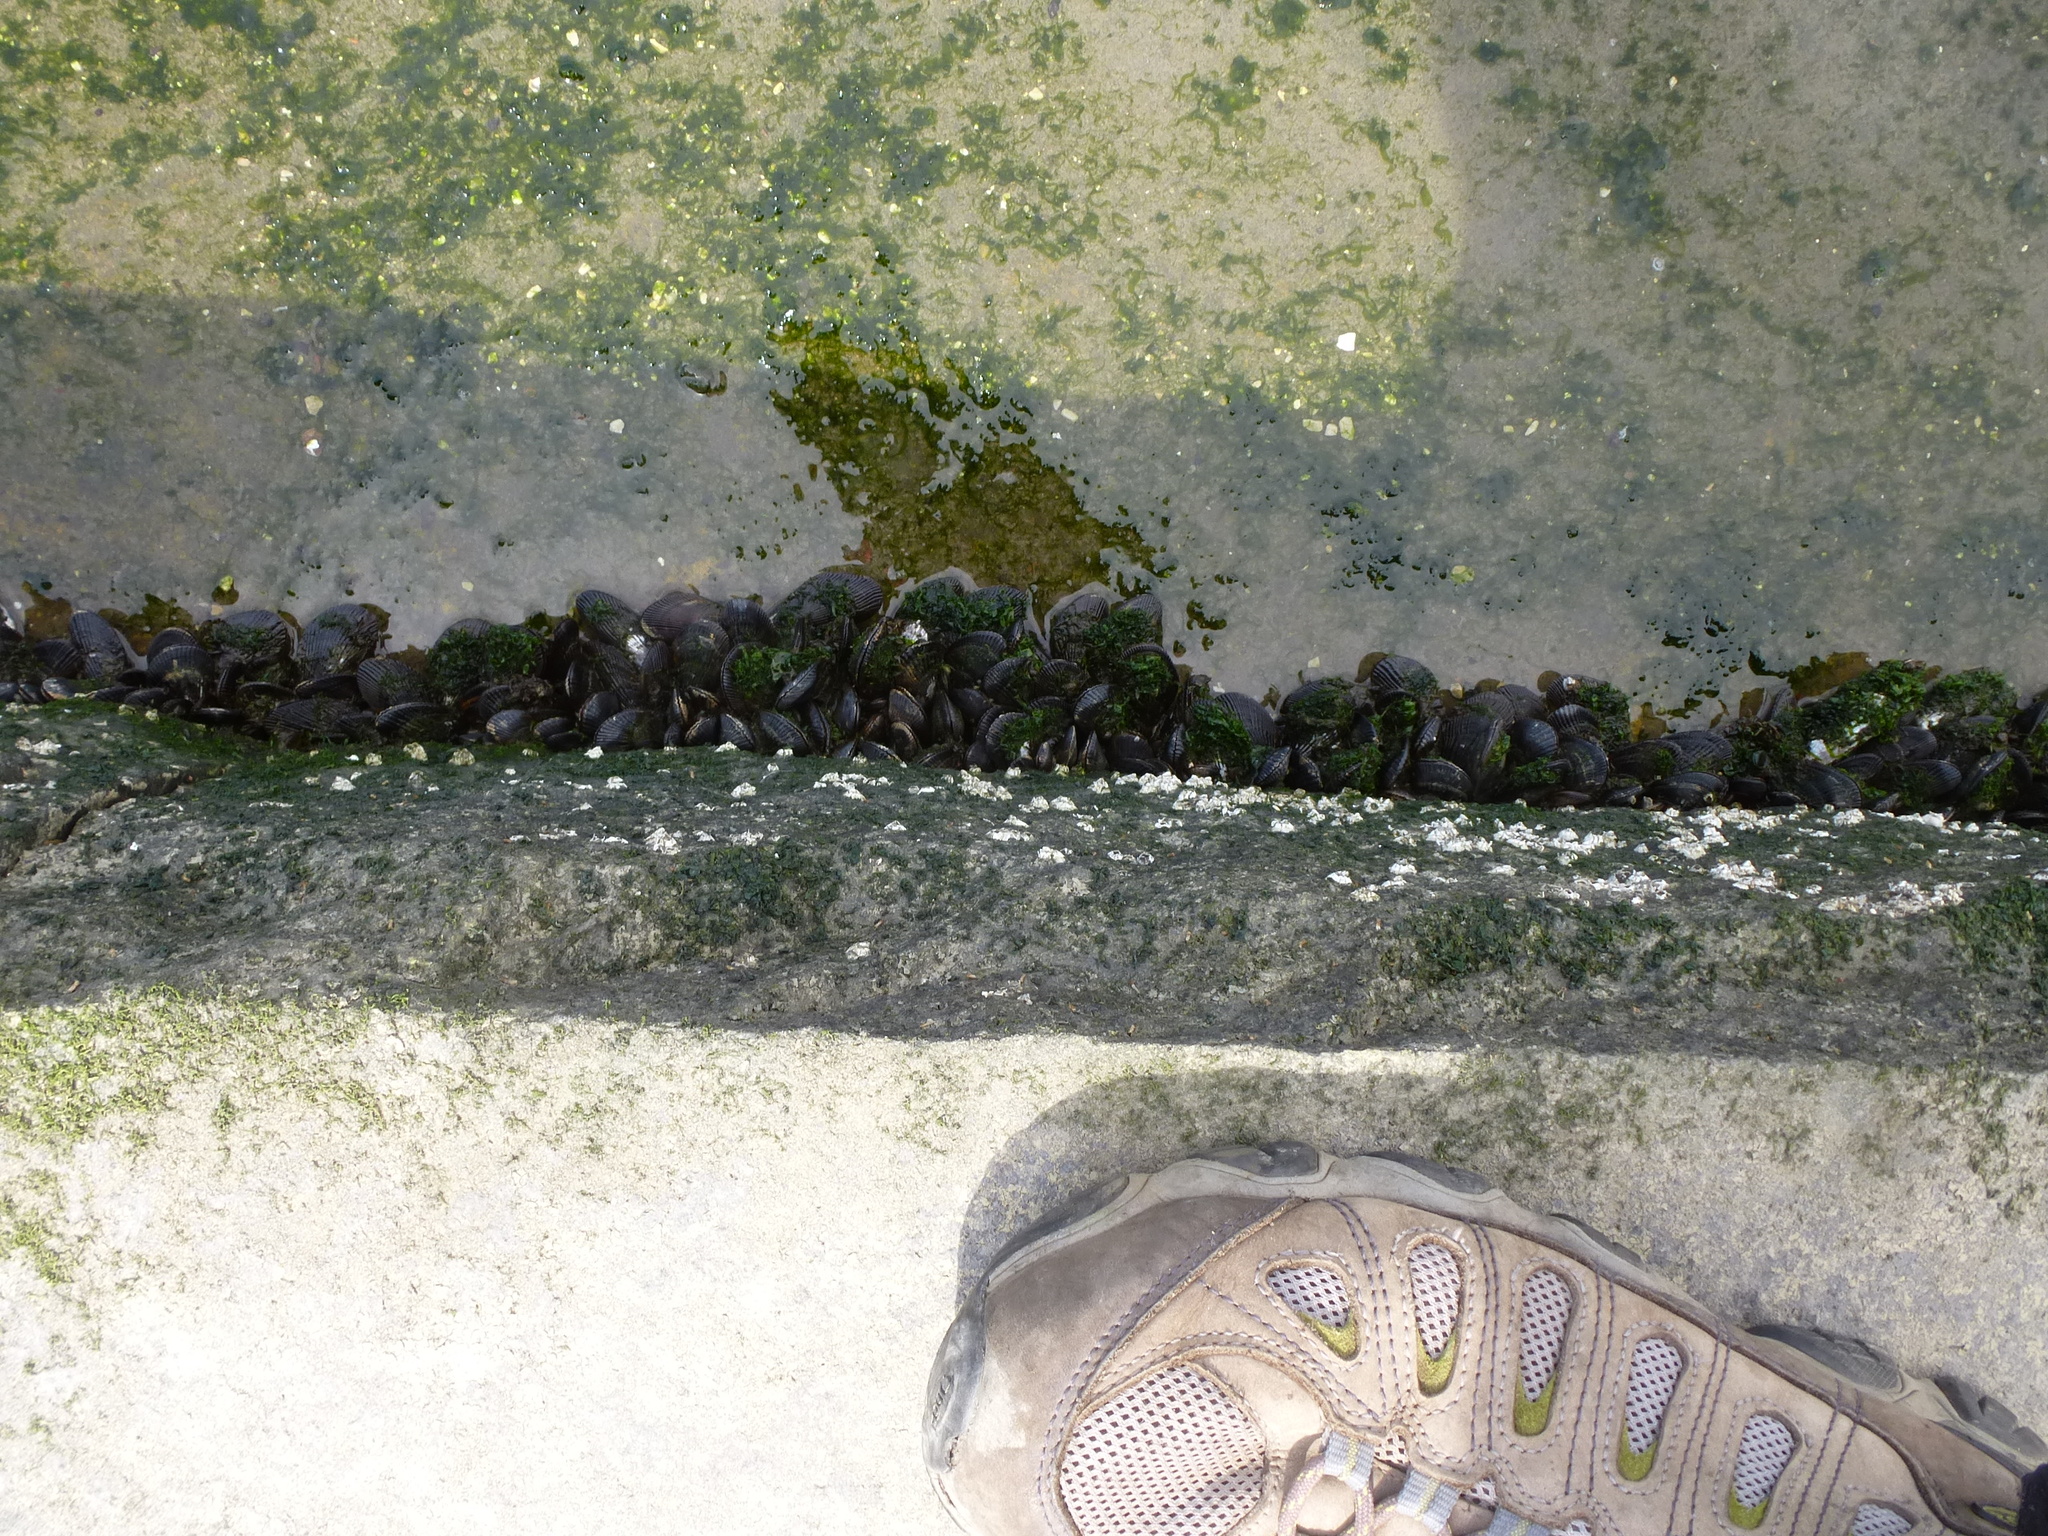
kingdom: Animalia
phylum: Mollusca
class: Bivalvia
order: Mytilida
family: Mytilidae
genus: Geukensia
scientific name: Geukensia demissa
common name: Ribbed mussel
